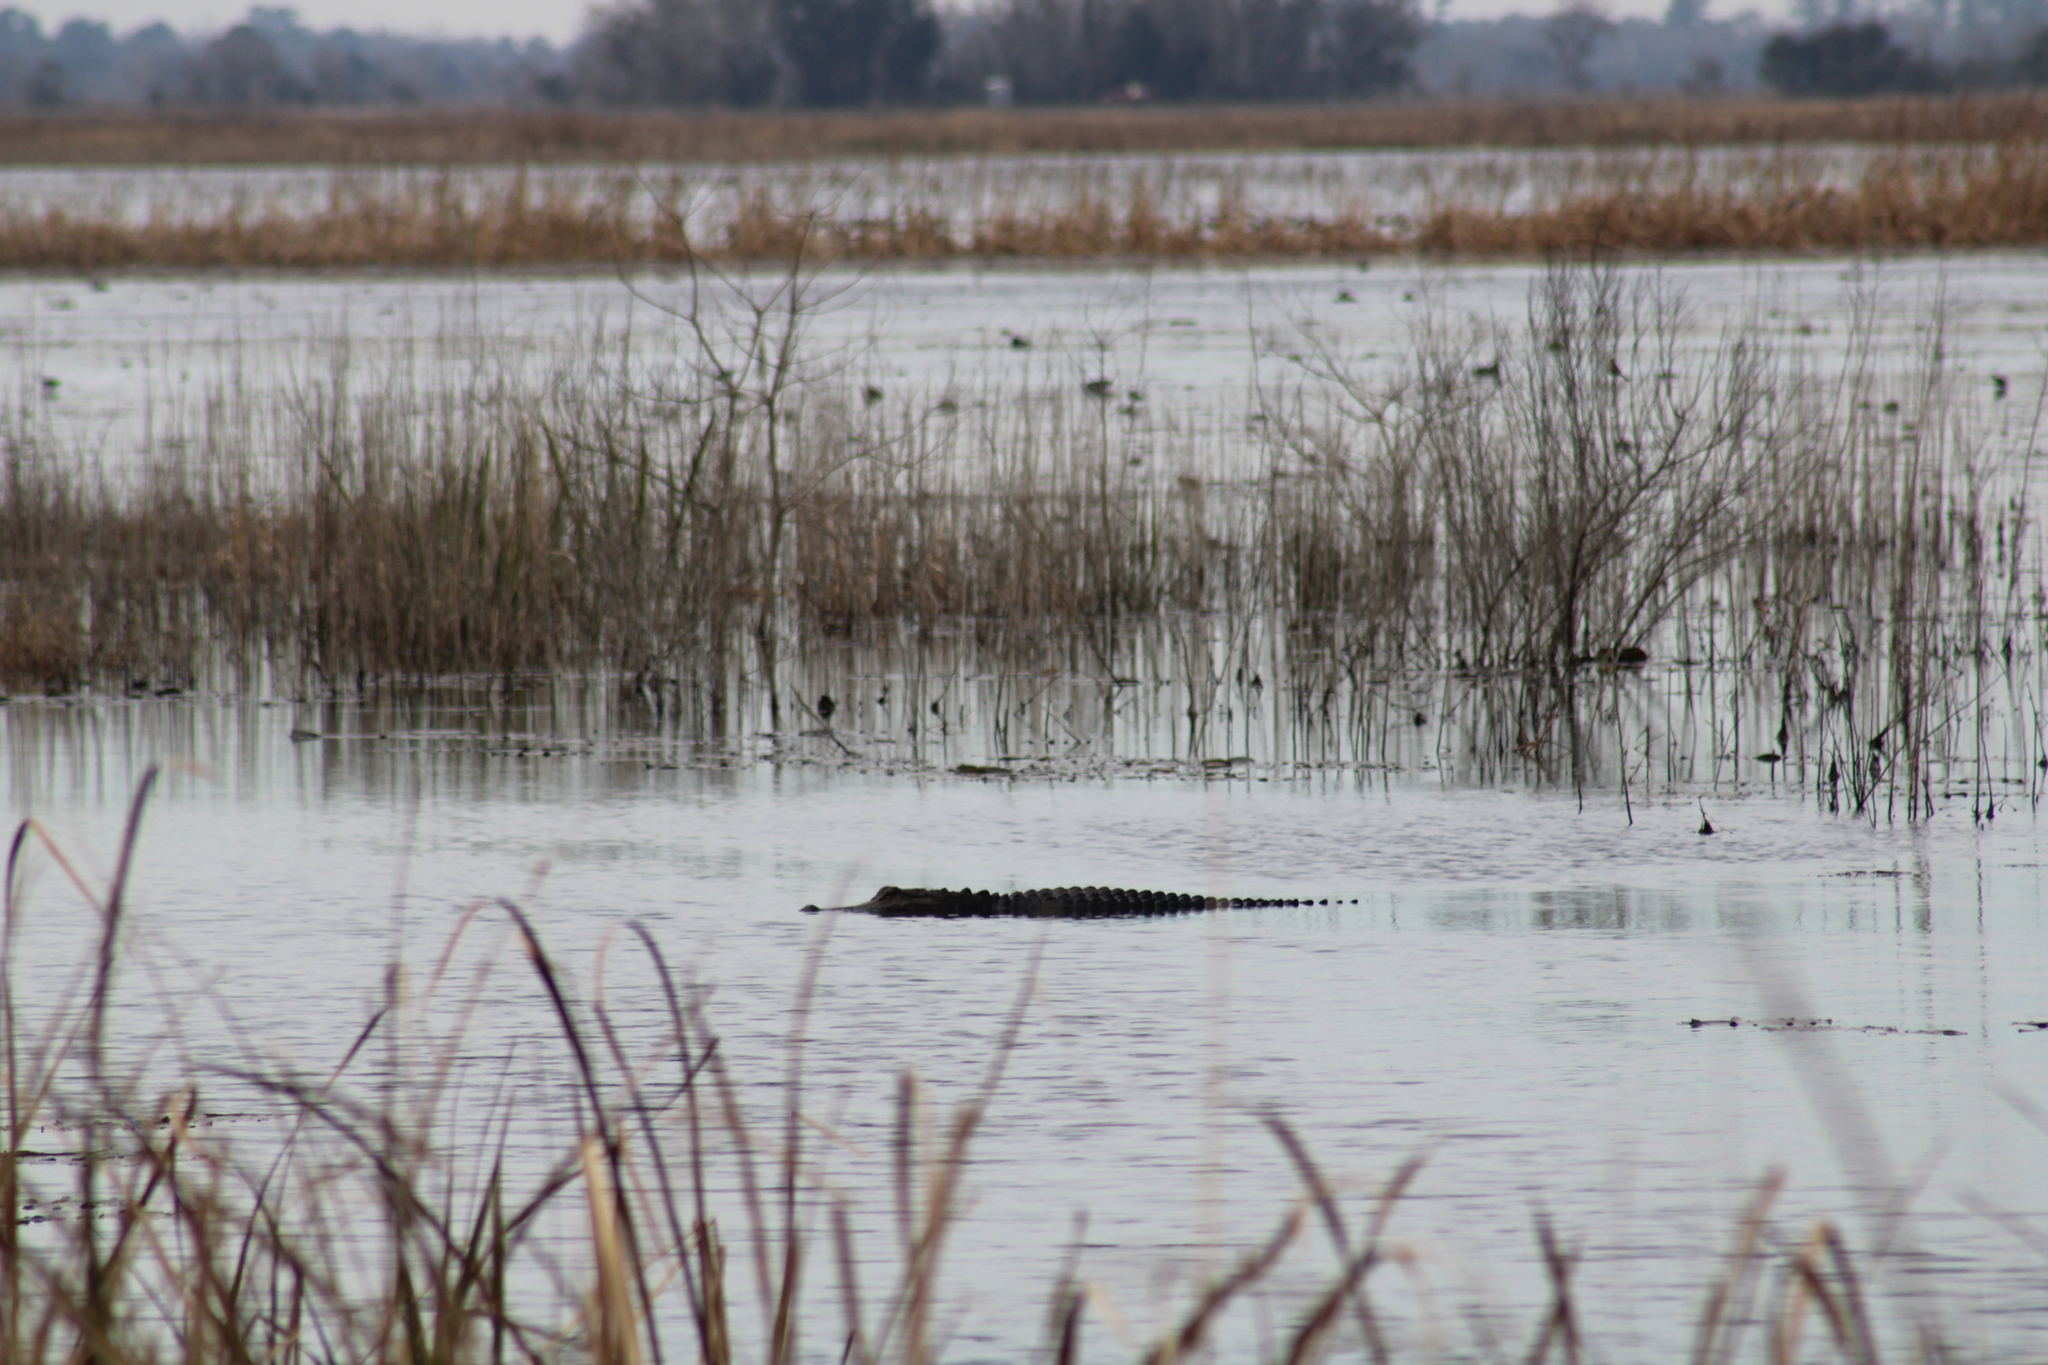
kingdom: Animalia
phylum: Chordata
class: Crocodylia
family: Alligatoridae
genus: Alligator
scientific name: Alligator mississippiensis
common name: American alligator
